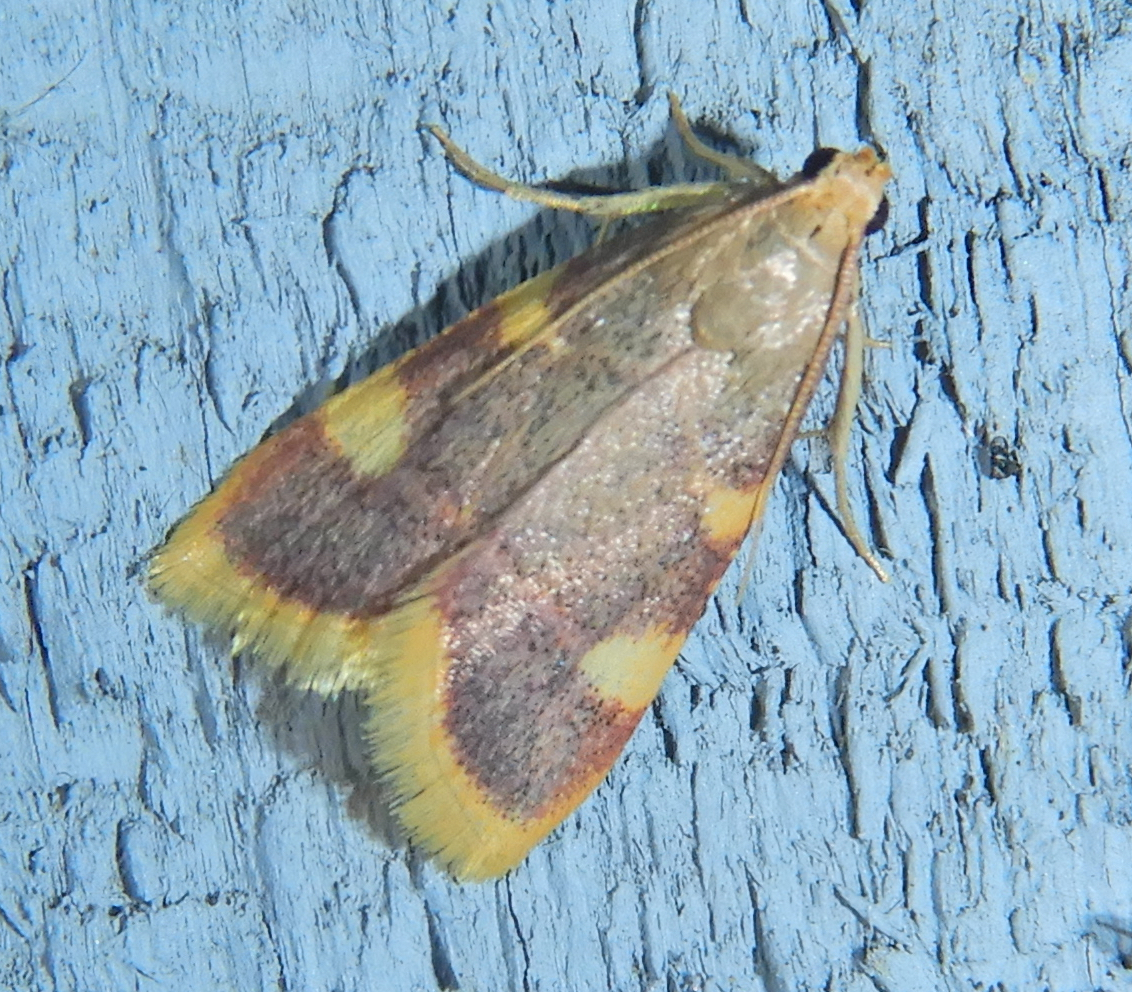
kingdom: Animalia
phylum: Arthropoda
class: Insecta
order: Lepidoptera
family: Pyralidae
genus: Hypsopygia
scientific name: Hypsopygia costalis
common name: Gold triangle
